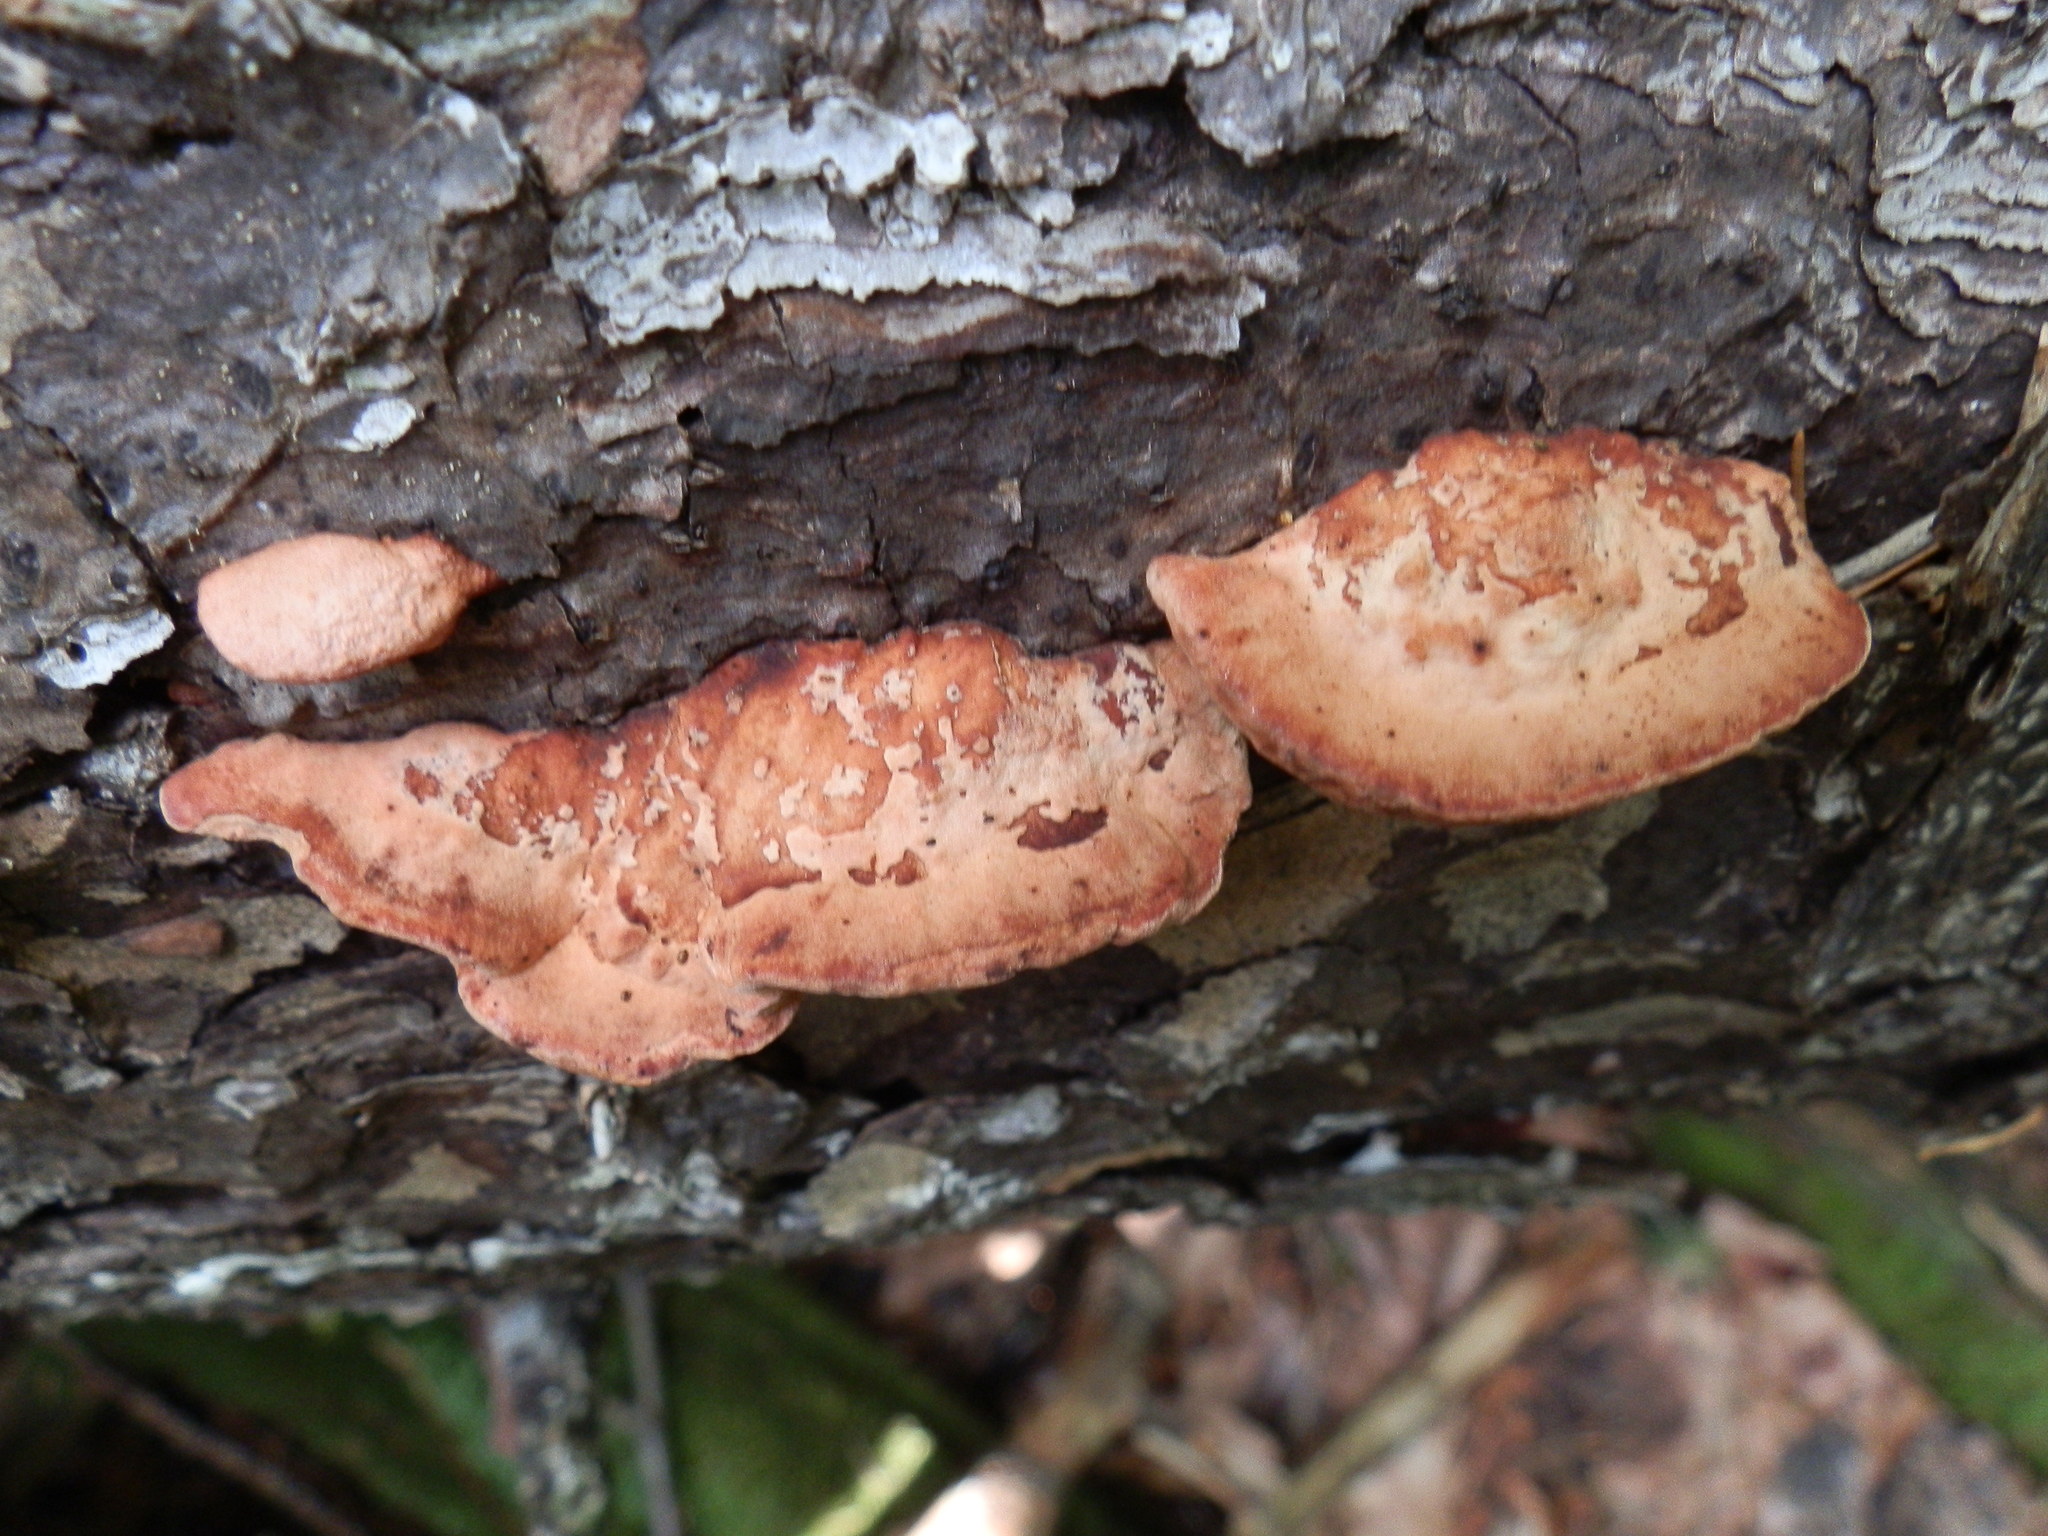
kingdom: Fungi
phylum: Basidiomycota
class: Agaricomycetes
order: Polyporales
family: Fomitopsidaceae
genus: Rhodofomes
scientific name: Rhodofomes cajanderi
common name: Rosy conk
